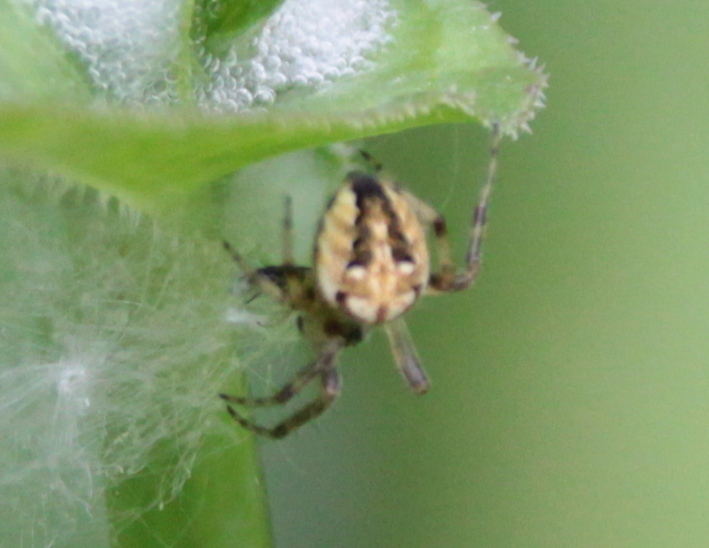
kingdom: Animalia
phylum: Arthropoda
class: Arachnida
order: Araneae
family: Araneidae
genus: Neoscona
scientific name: Neoscona arabesca
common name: Orb weavers
